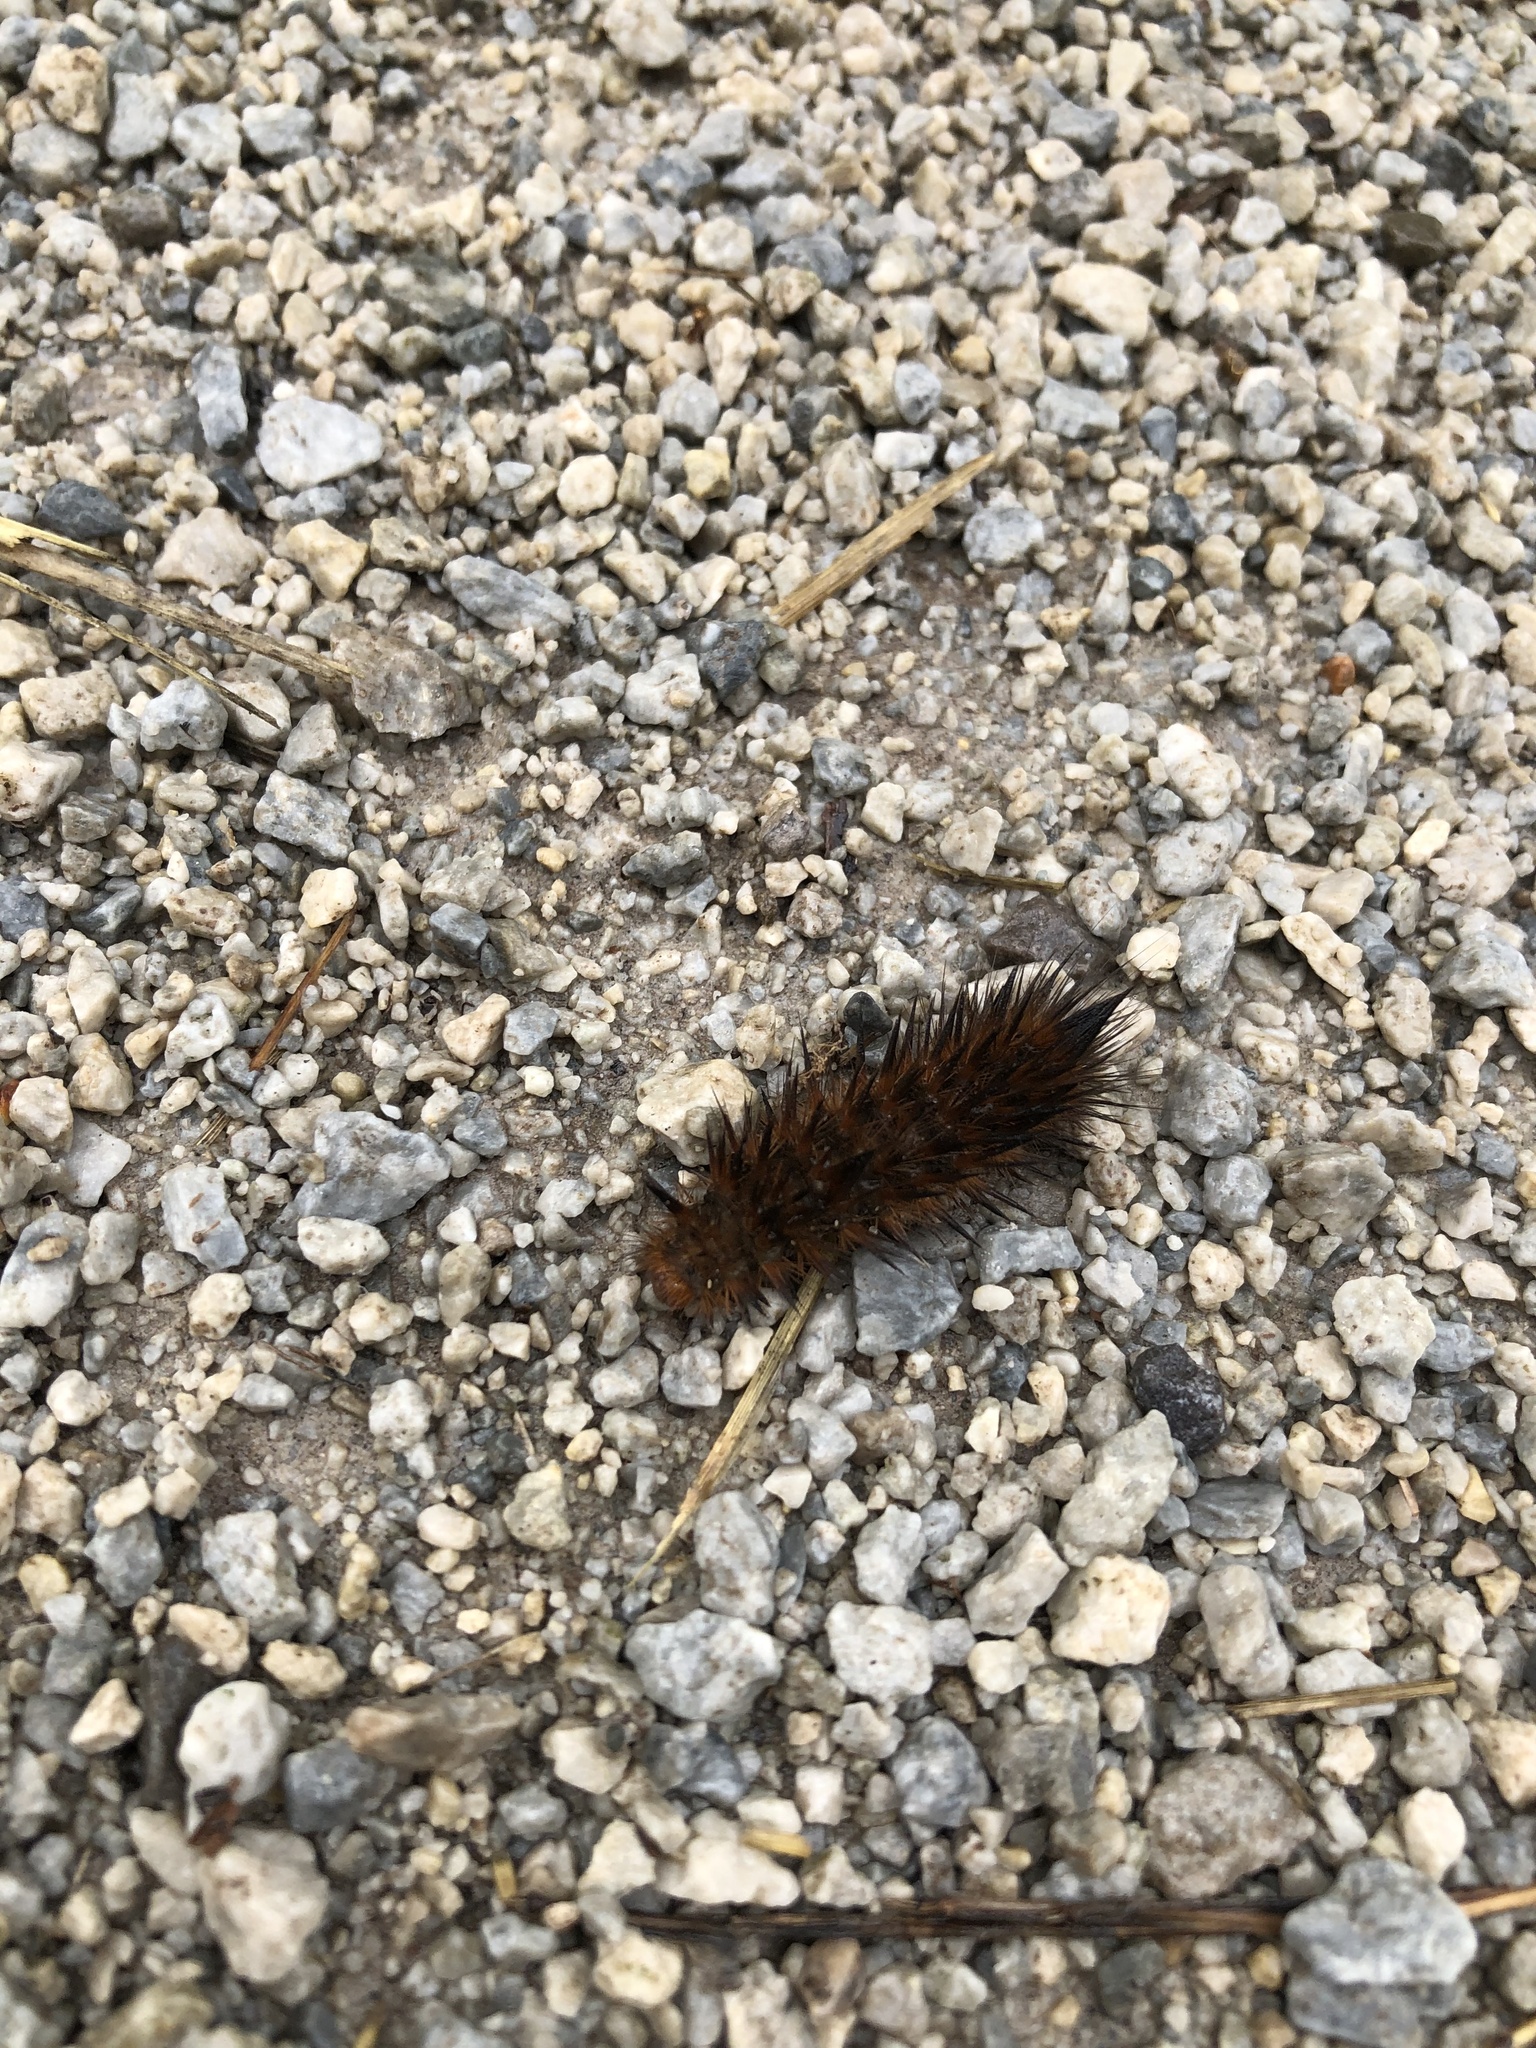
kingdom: Animalia
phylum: Arthropoda
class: Insecta
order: Lepidoptera
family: Erebidae
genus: Spilosoma
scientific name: Spilosoma virginica
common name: Virginia tiger moth
